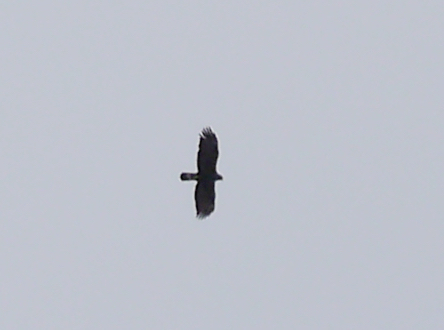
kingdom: Animalia
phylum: Chordata
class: Aves
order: Accipitriformes
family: Accipitridae
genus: Aquila
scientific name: Aquila chrysaetos
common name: Golden eagle
